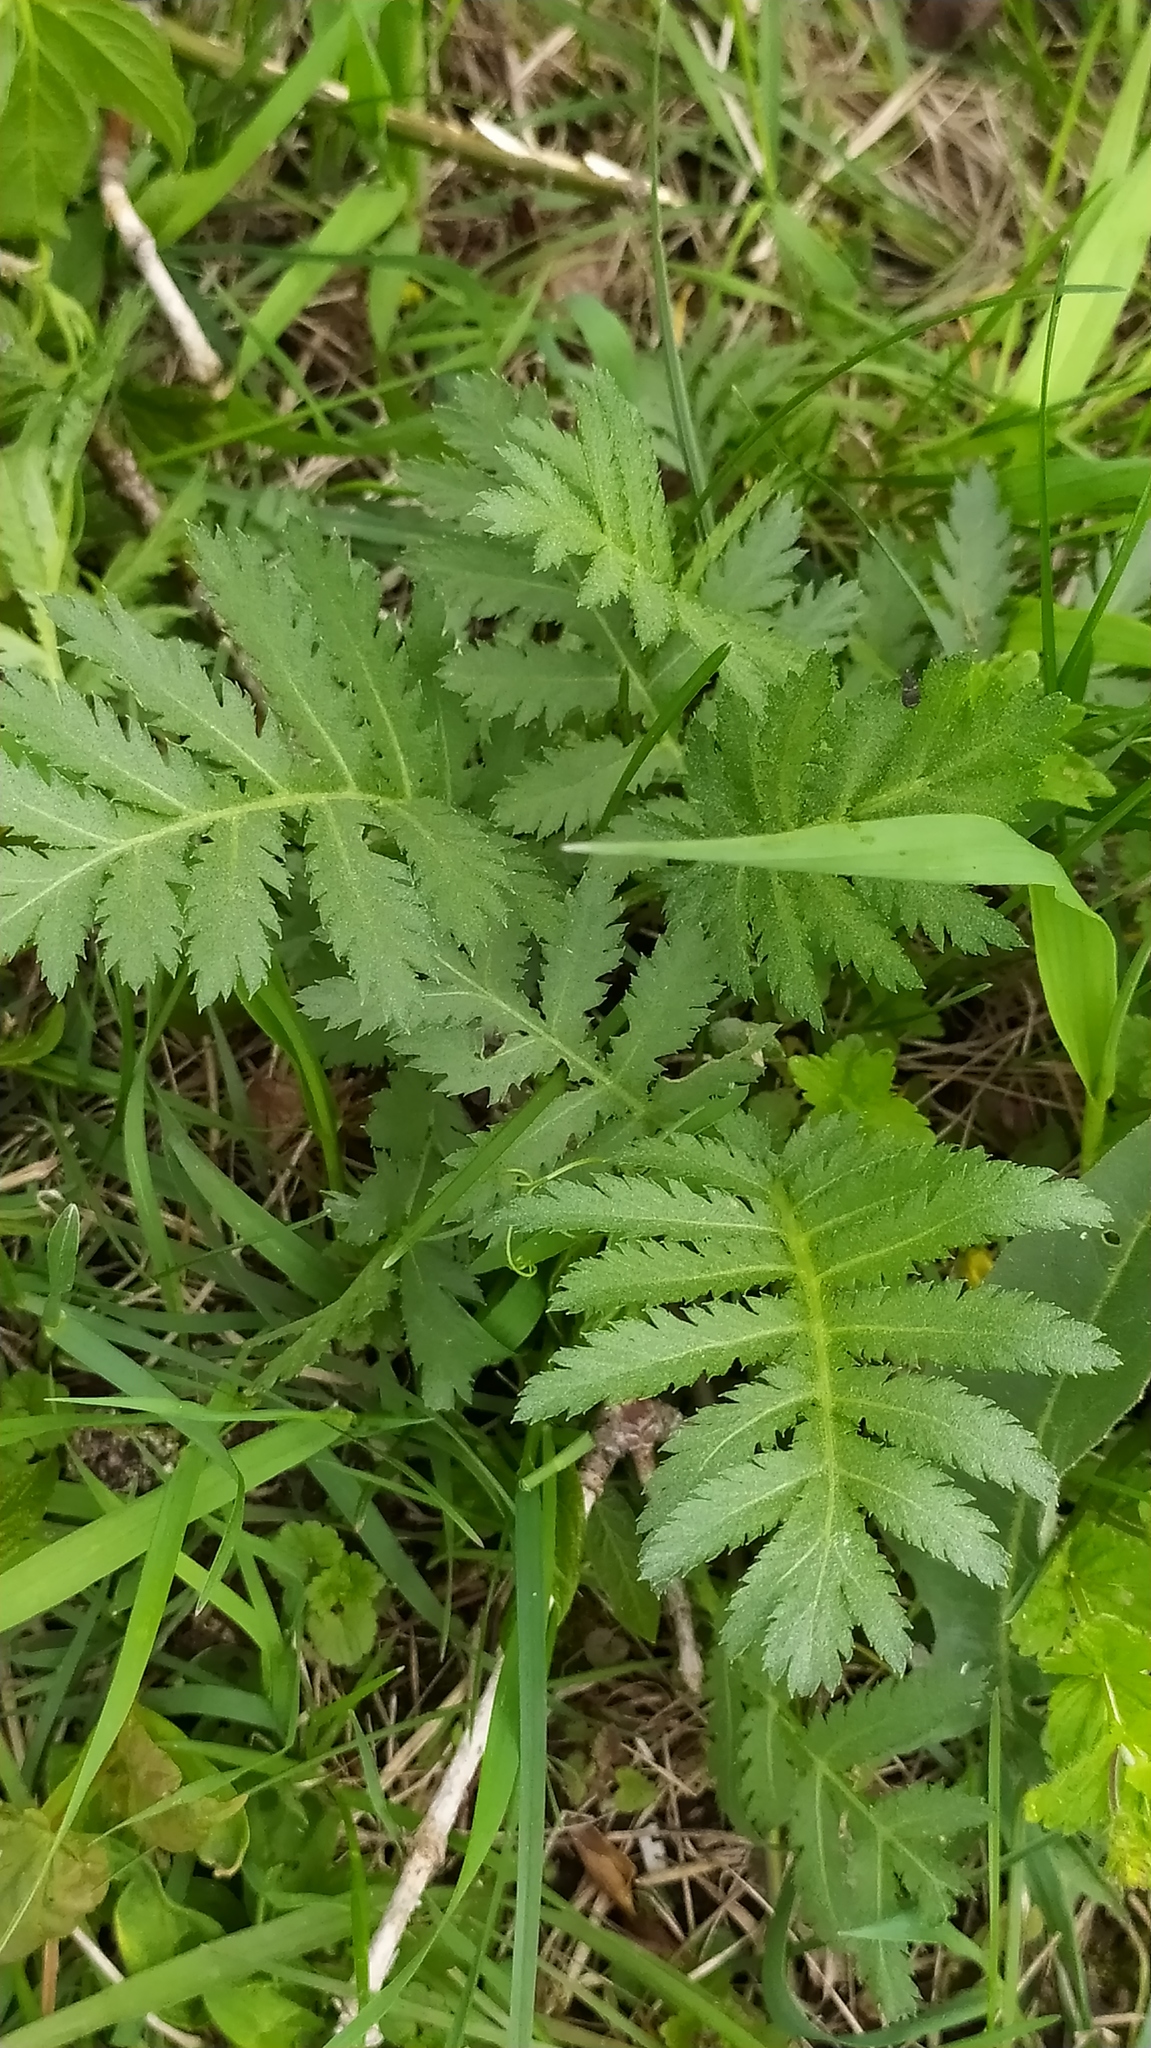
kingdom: Plantae
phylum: Tracheophyta
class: Magnoliopsida
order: Asterales
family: Asteraceae
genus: Tanacetum
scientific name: Tanacetum vulgare
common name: Common tansy
